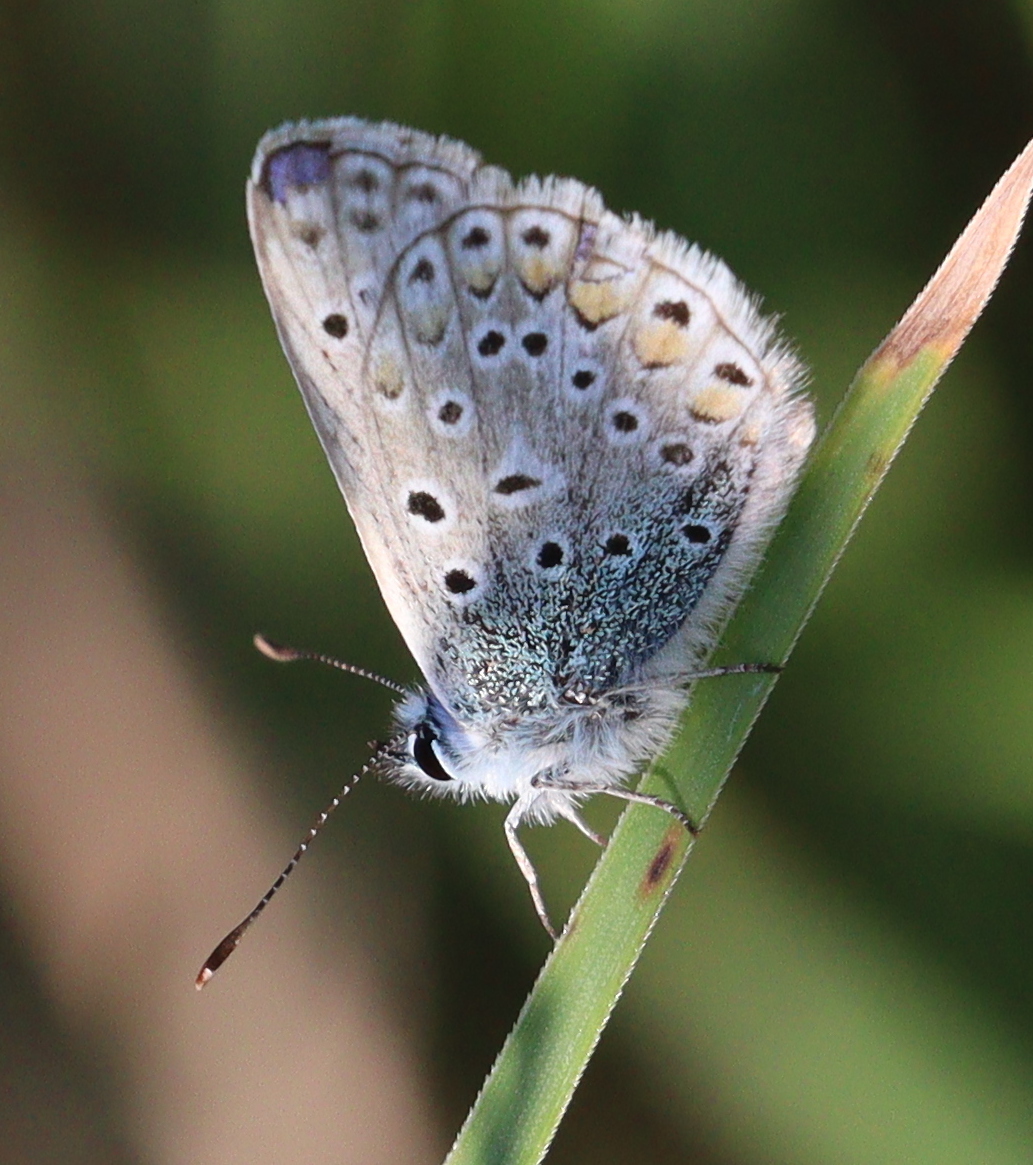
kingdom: Animalia
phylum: Arthropoda
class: Insecta
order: Lepidoptera
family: Lycaenidae
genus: Polyommatus
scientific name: Polyommatus icarus
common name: Common blue
